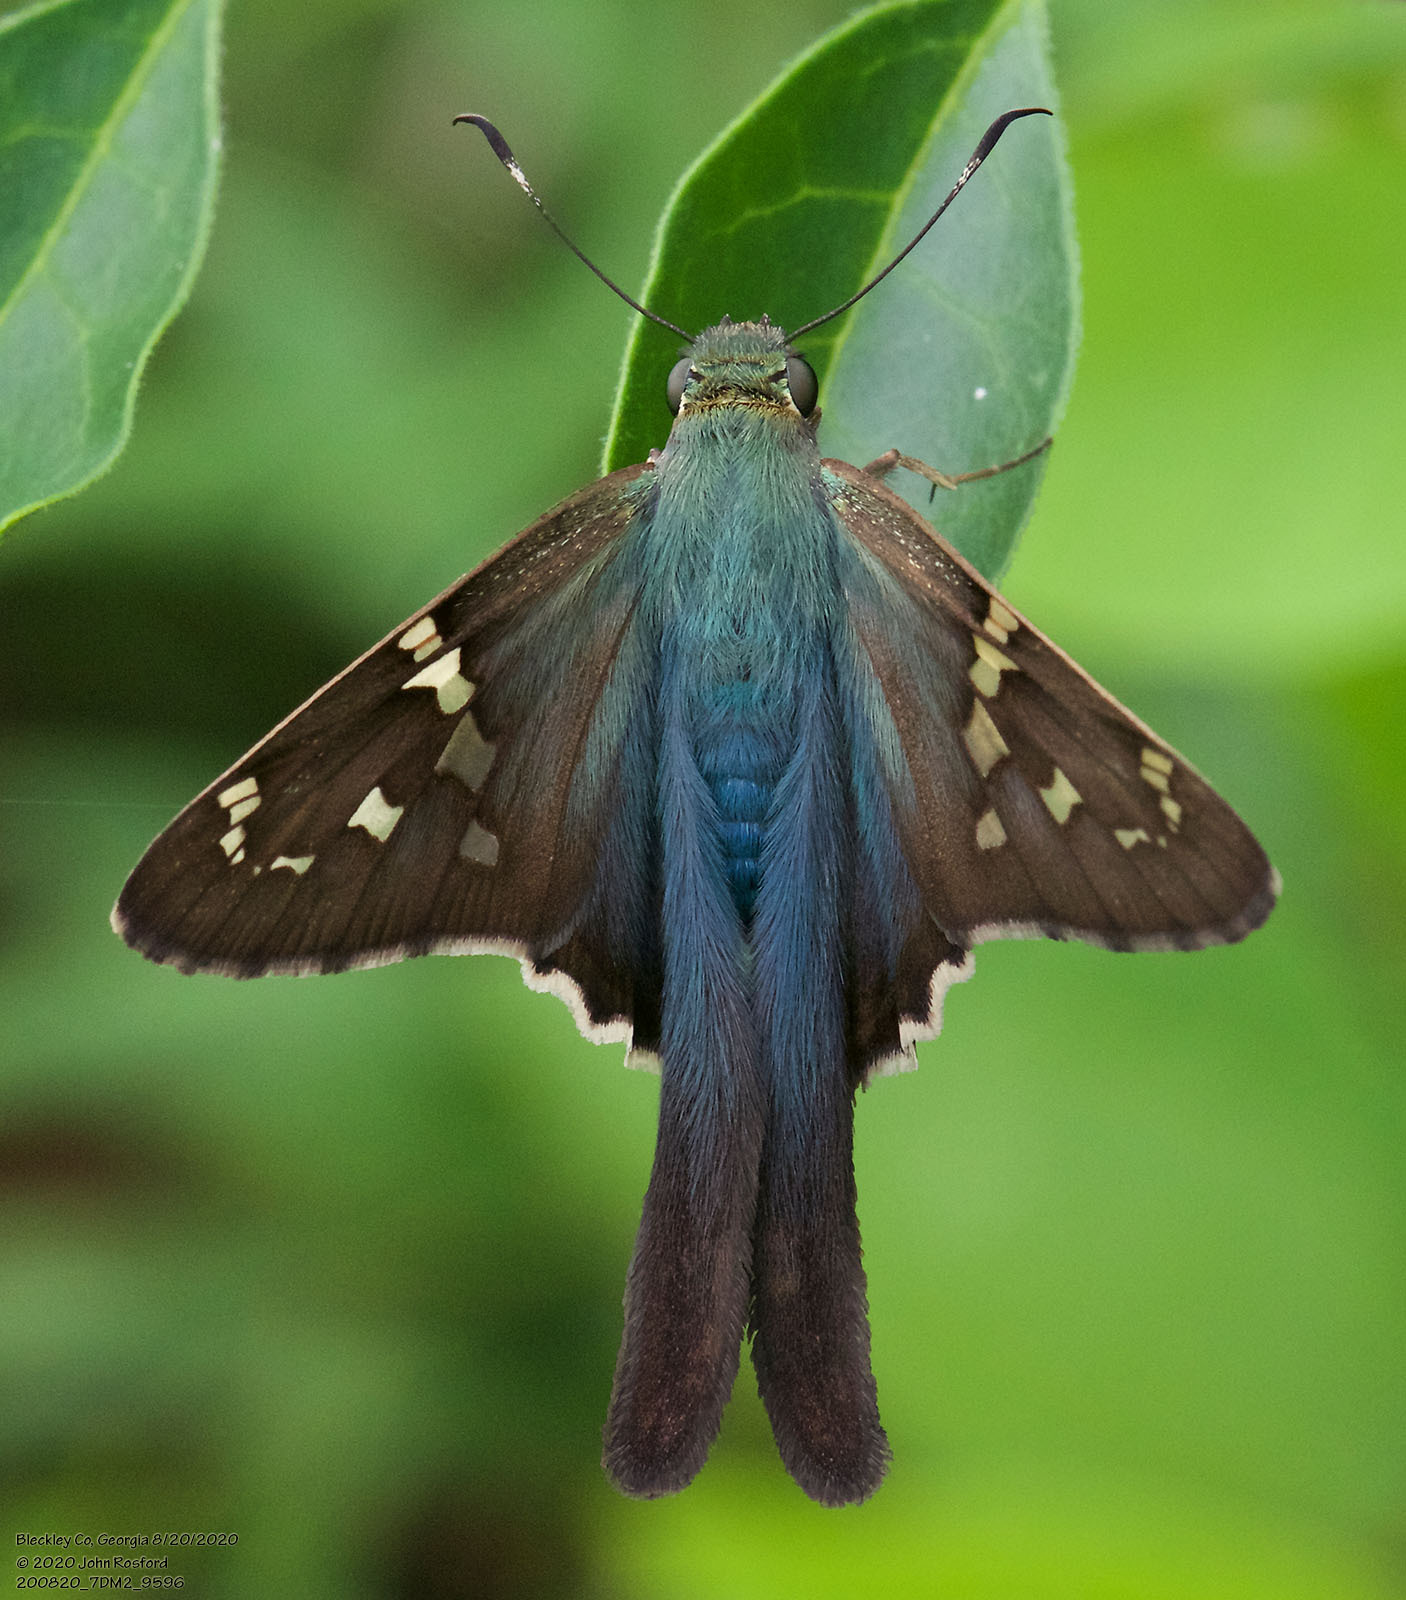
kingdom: Animalia
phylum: Arthropoda
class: Insecta
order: Lepidoptera
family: Hesperiidae
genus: Urbanus
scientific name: Urbanus proteus
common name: Long-tailed skipper
